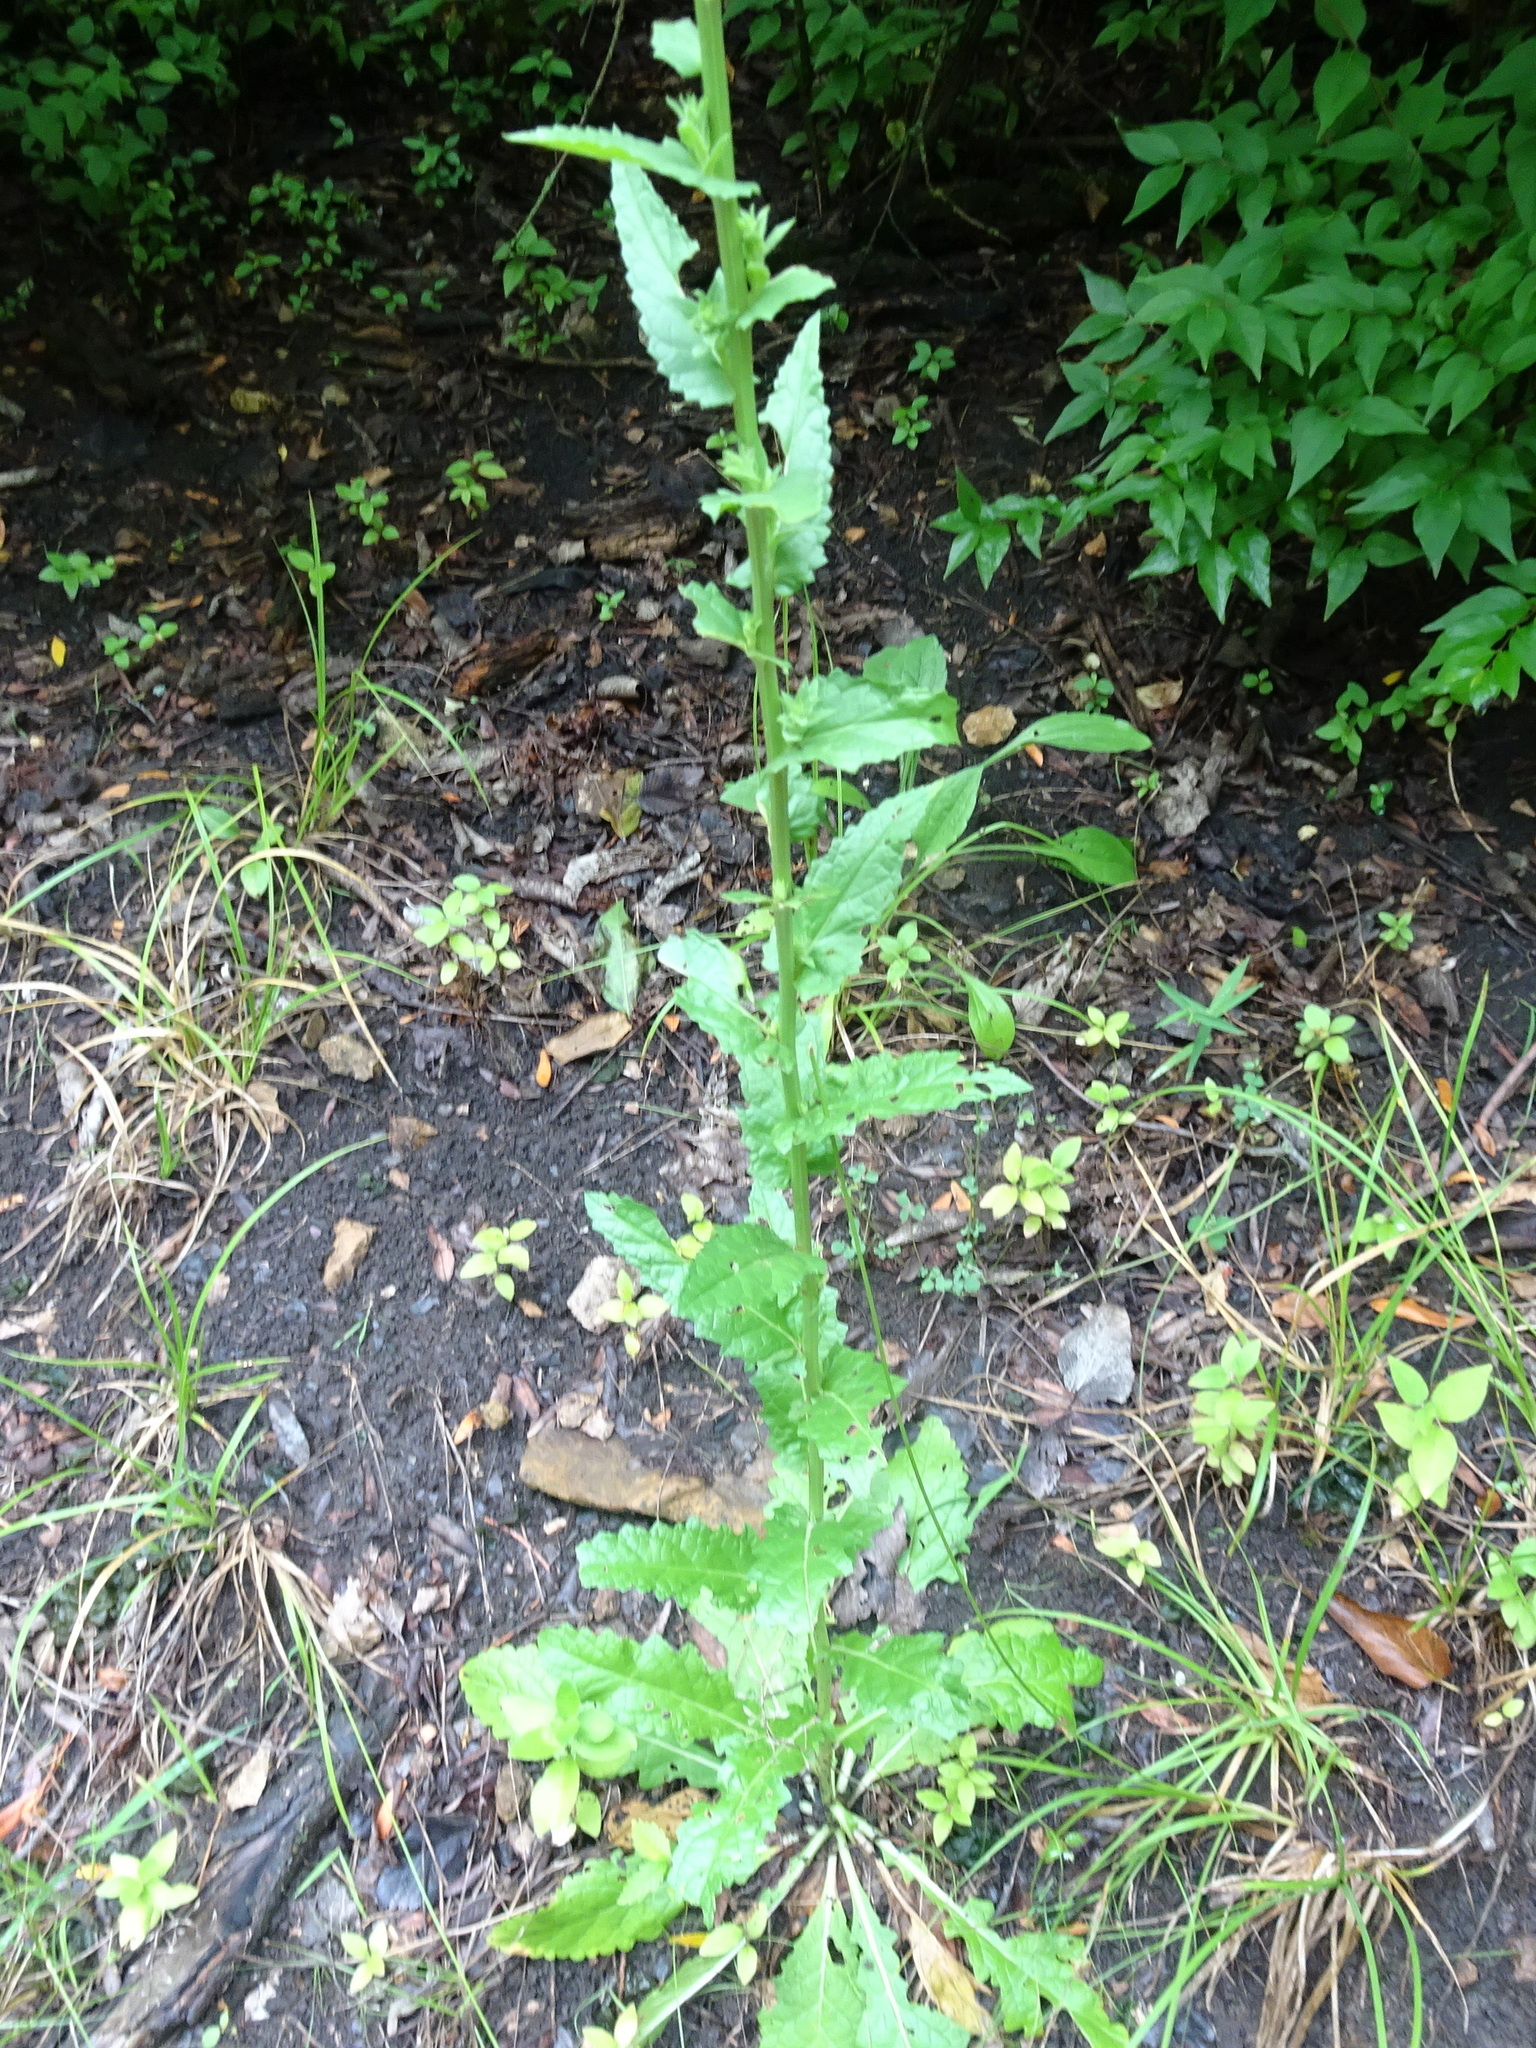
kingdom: Plantae
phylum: Tracheophyta
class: Magnoliopsida
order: Lamiales
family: Scrophulariaceae
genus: Verbascum
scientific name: Verbascum blattaria
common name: Moth mullein
